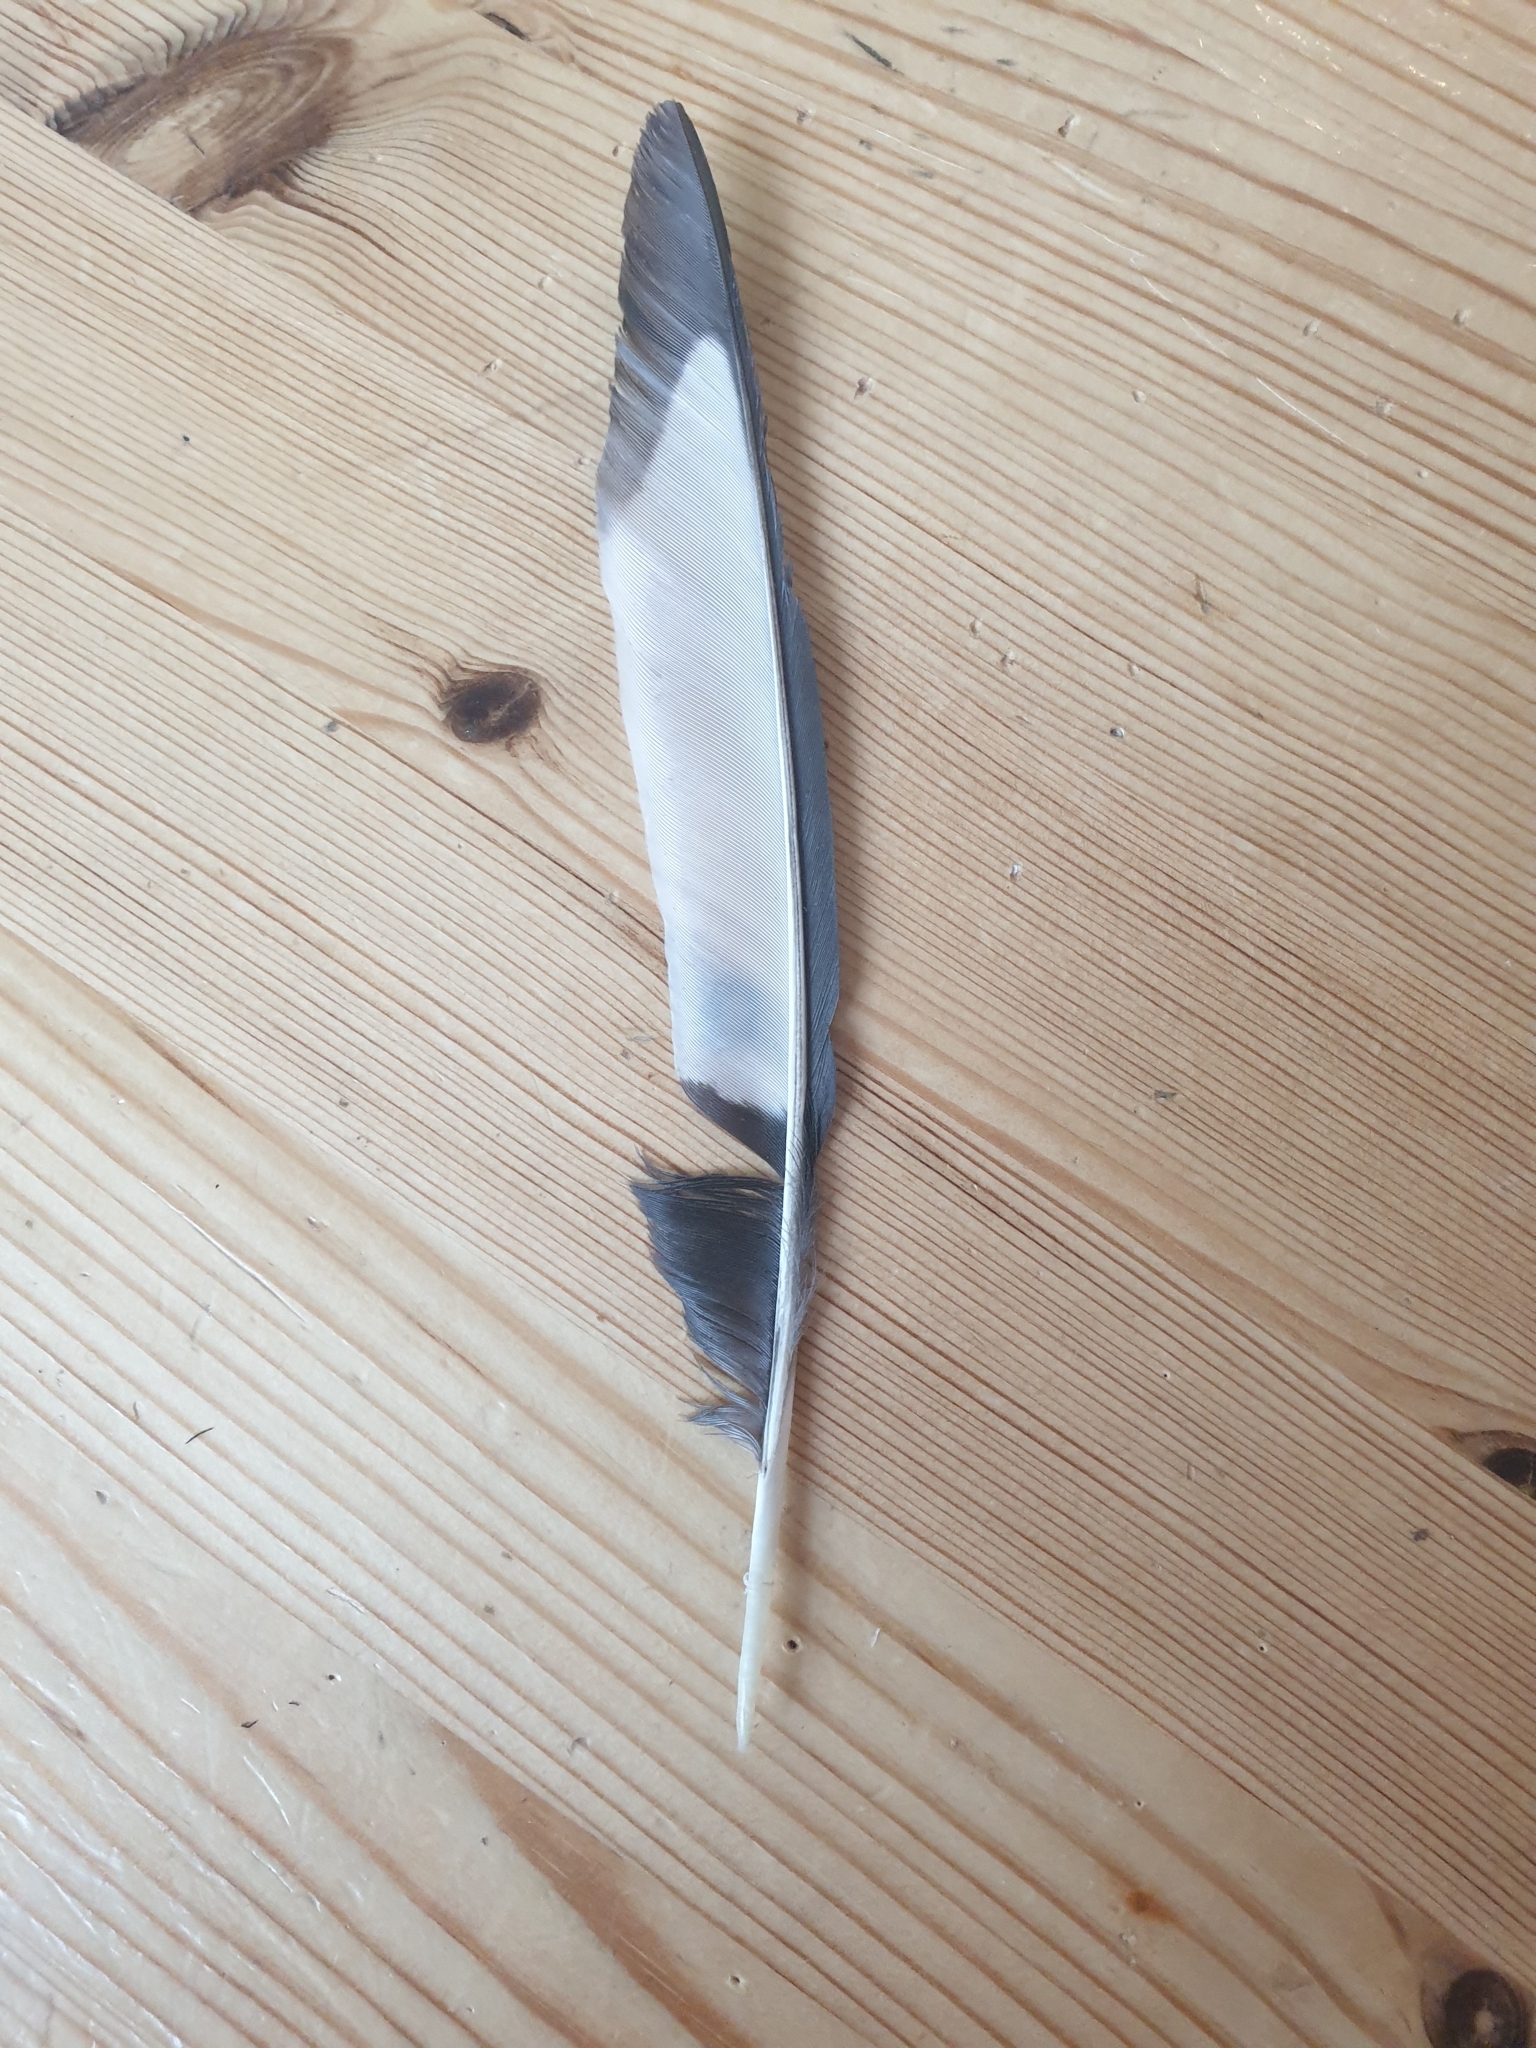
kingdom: Animalia
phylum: Chordata
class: Aves
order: Passeriformes
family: Corvidae
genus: Pica
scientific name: Pica pica
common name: Eurasian magpie
